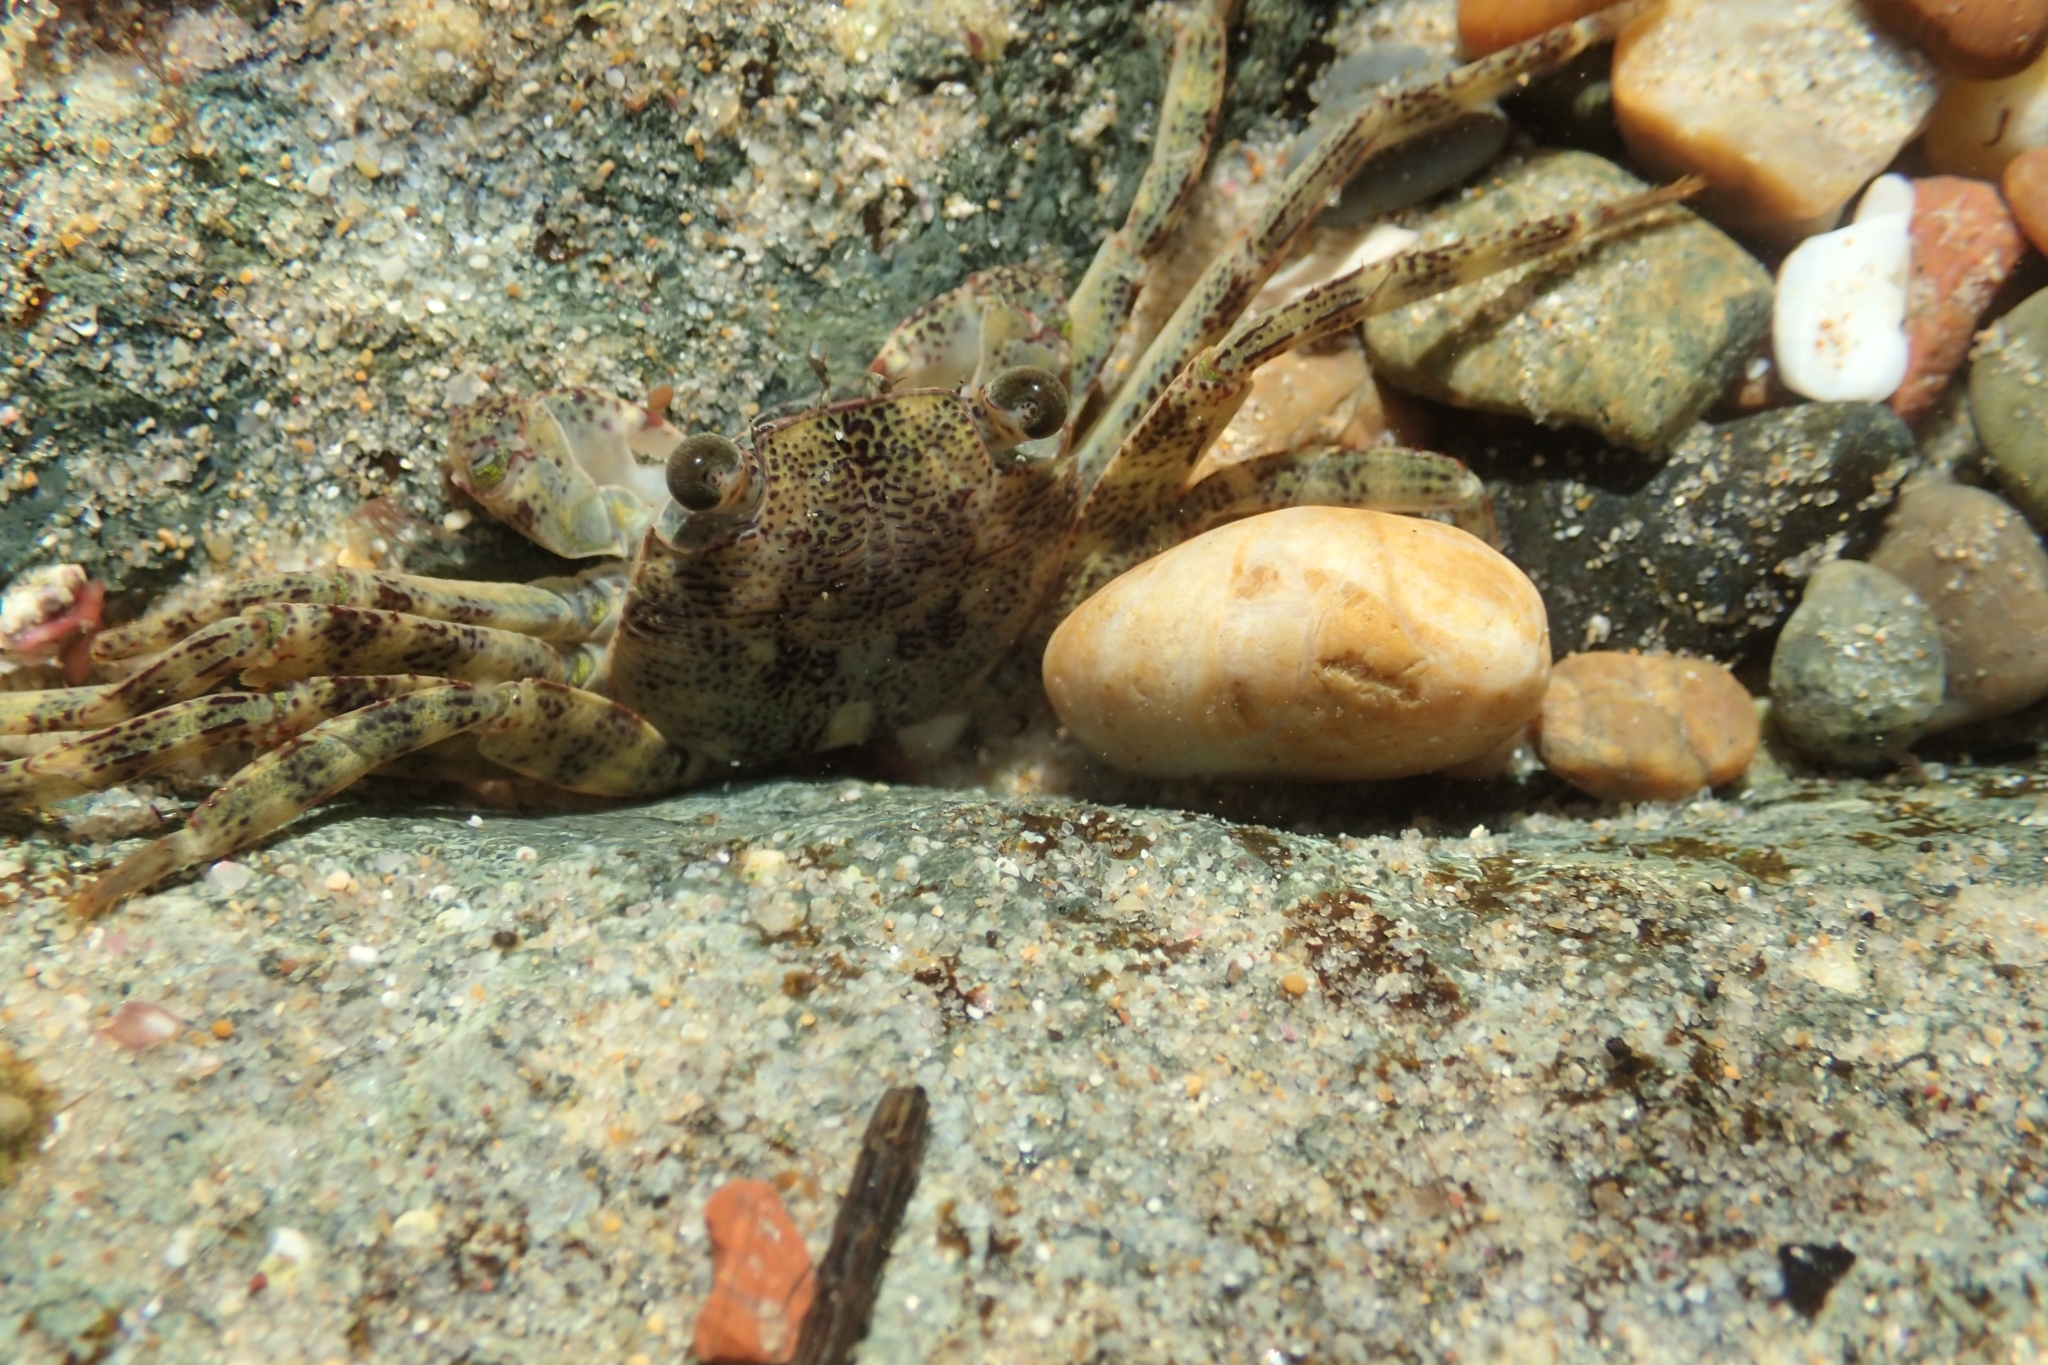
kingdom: Animalia
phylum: Arthropoda
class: Malacostraca
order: Decapoda
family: Grapsidae
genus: Leptograpsus
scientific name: Leptograpsus variegatus
